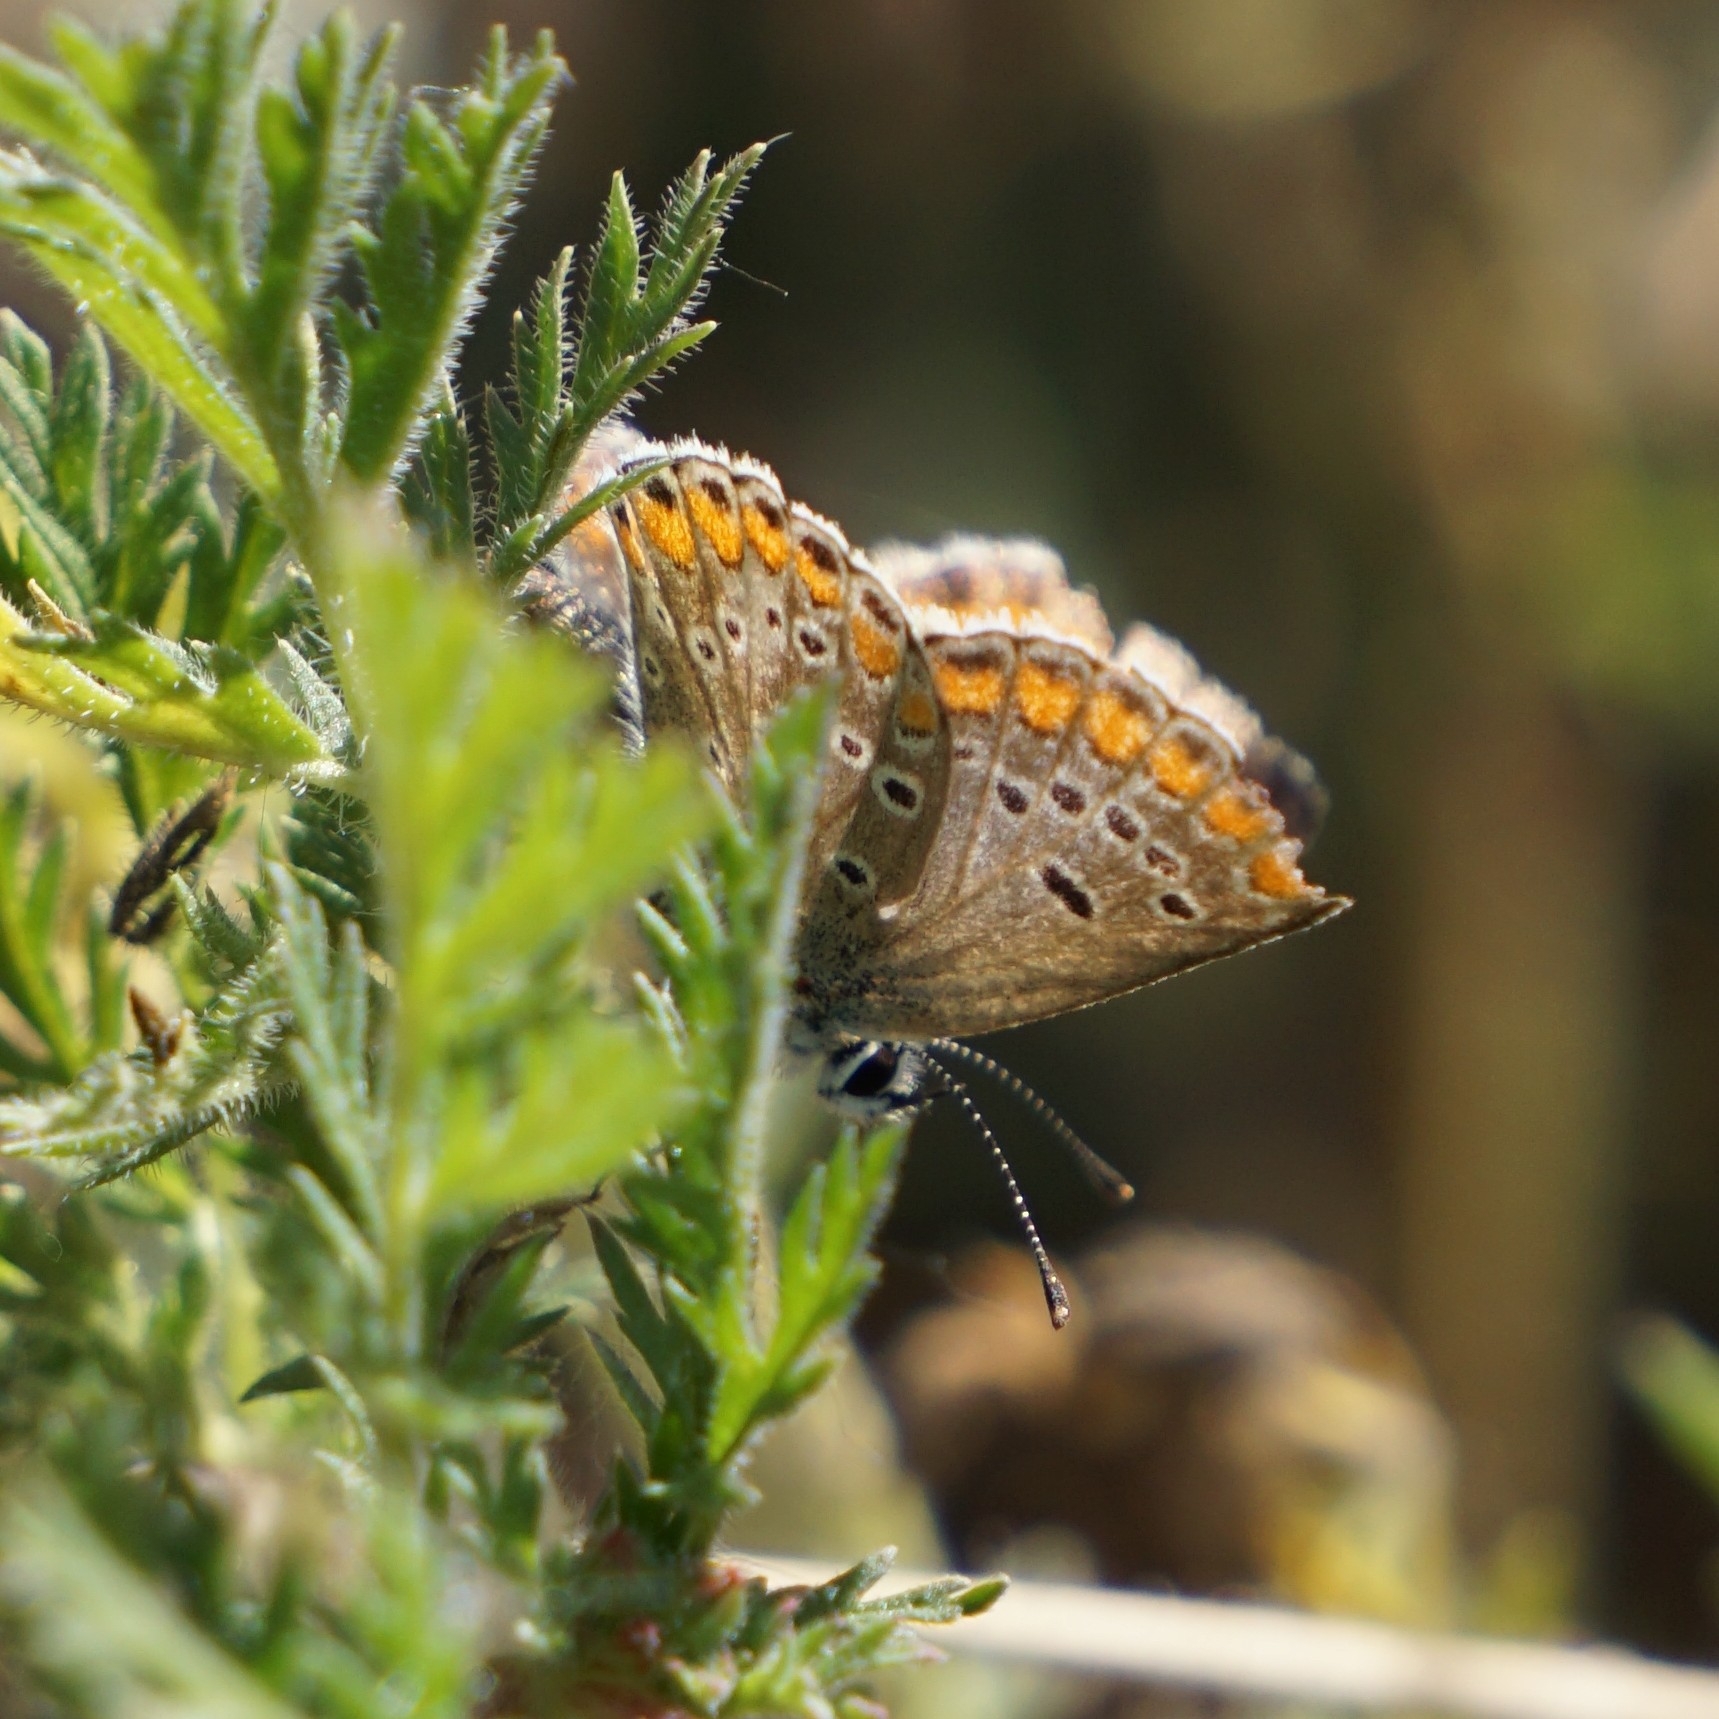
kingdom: Animalia
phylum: Arthropoda
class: Insecta
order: Lepidoptera
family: Lycaenidae
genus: Aricia
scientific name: Aricia agestis
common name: Brown argus
